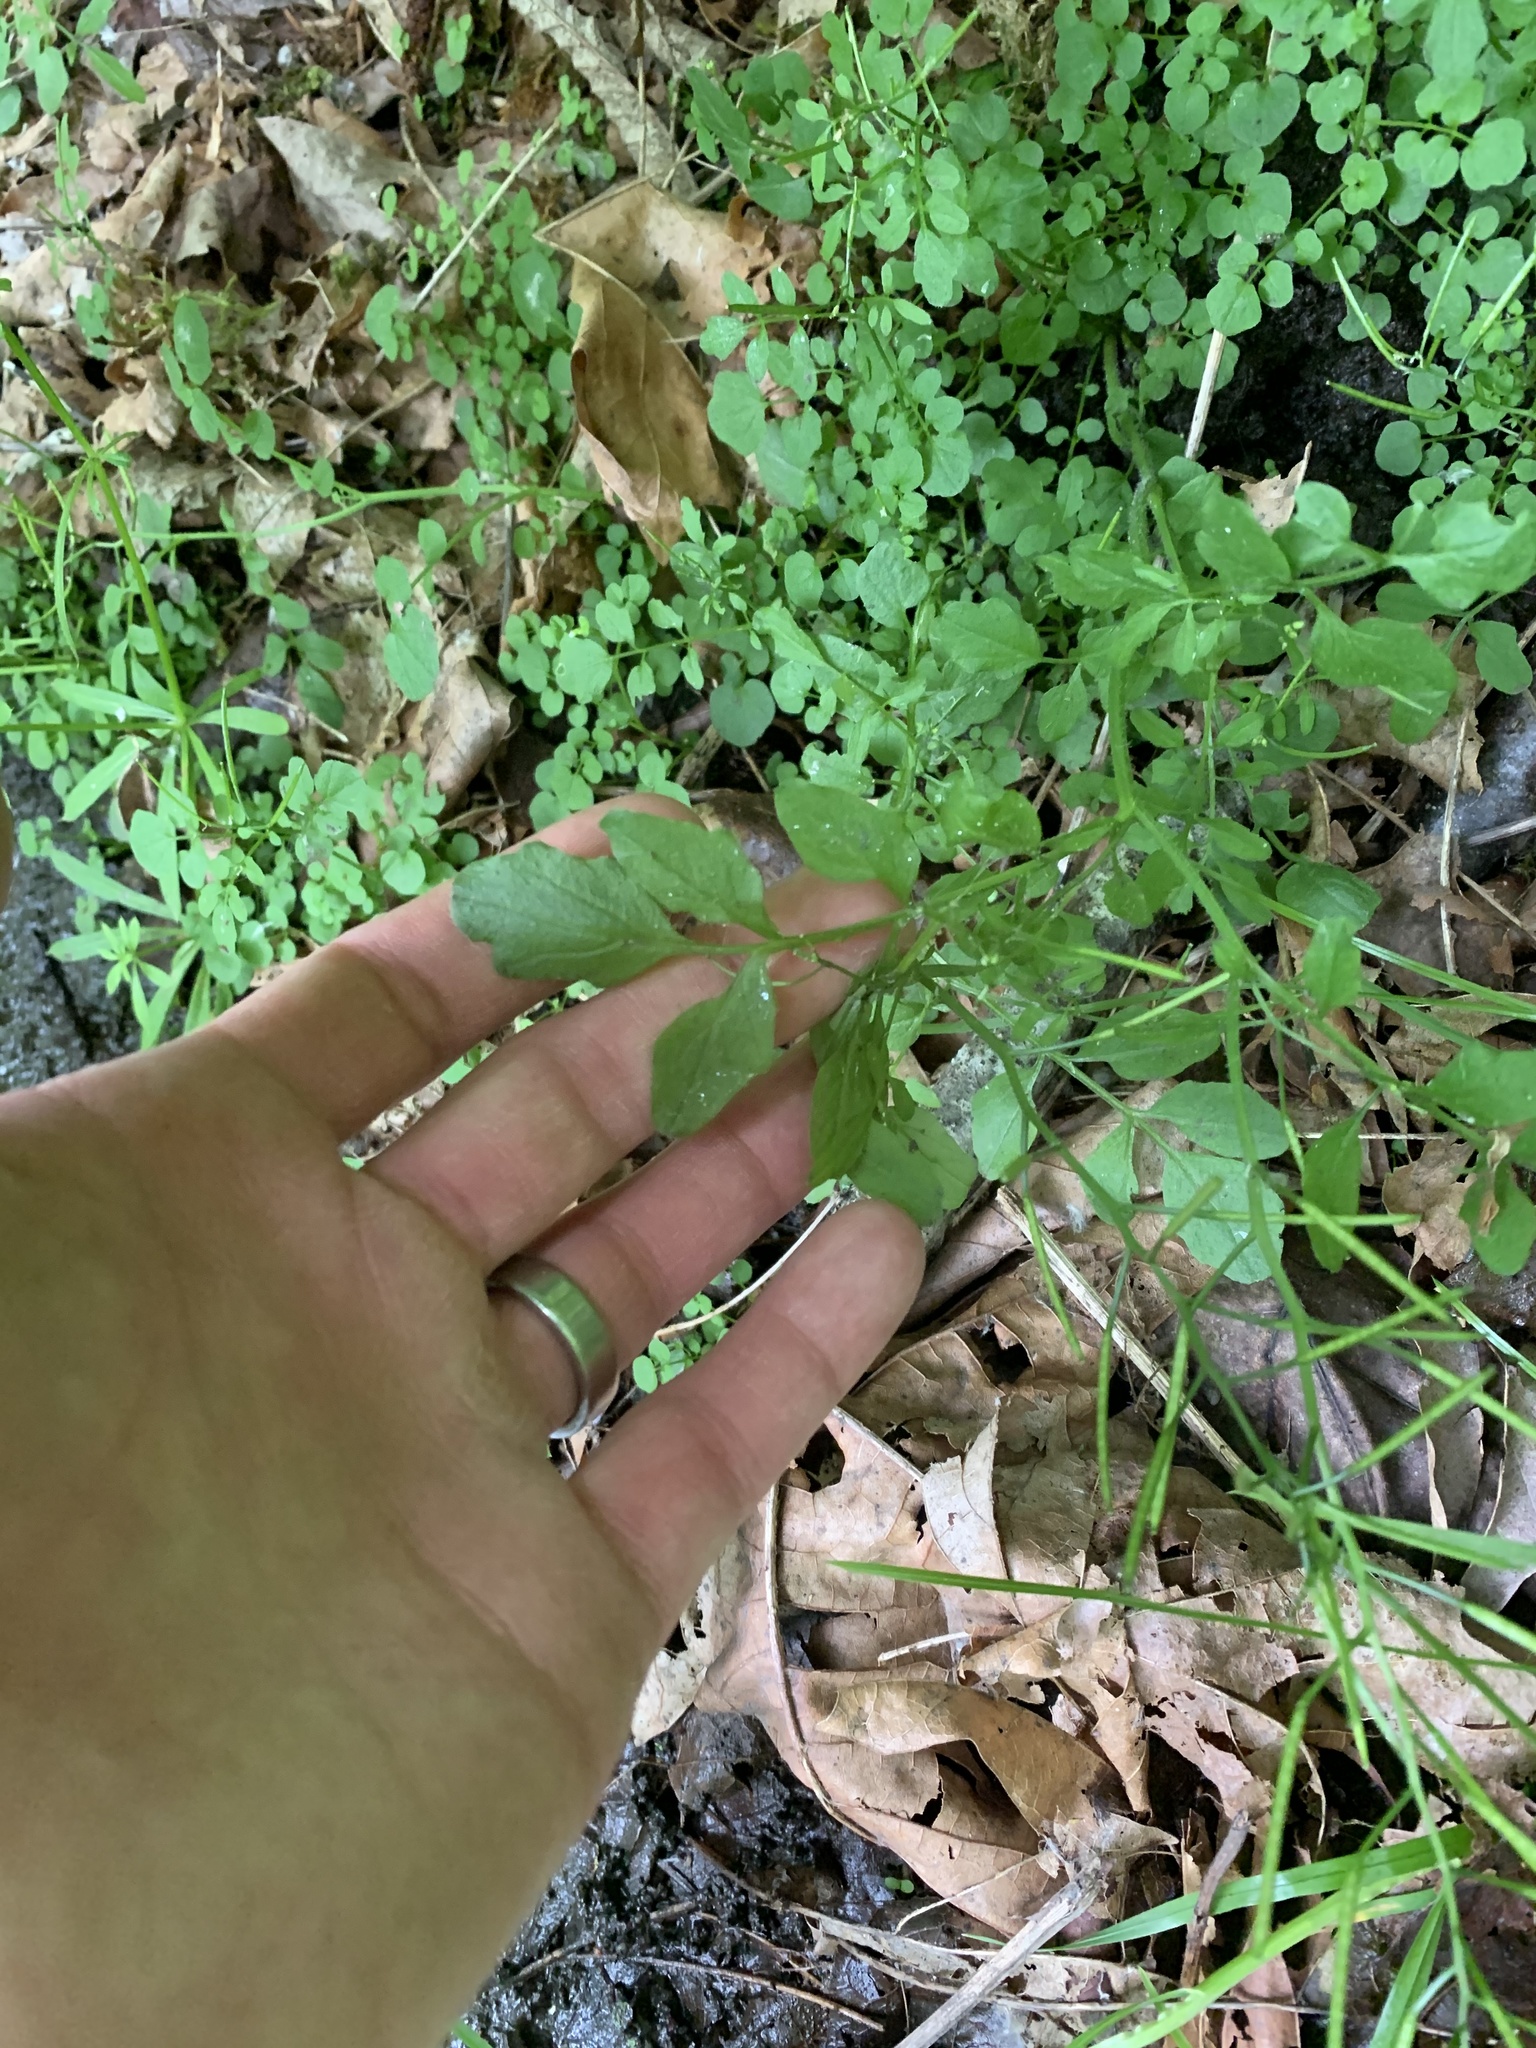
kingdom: Plantae
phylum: Tracheophyta
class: Magnoliopsida
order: Brassicales
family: Brassicaceae
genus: Cardamine
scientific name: Cardamine flexuosa
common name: Woodland bittercress
